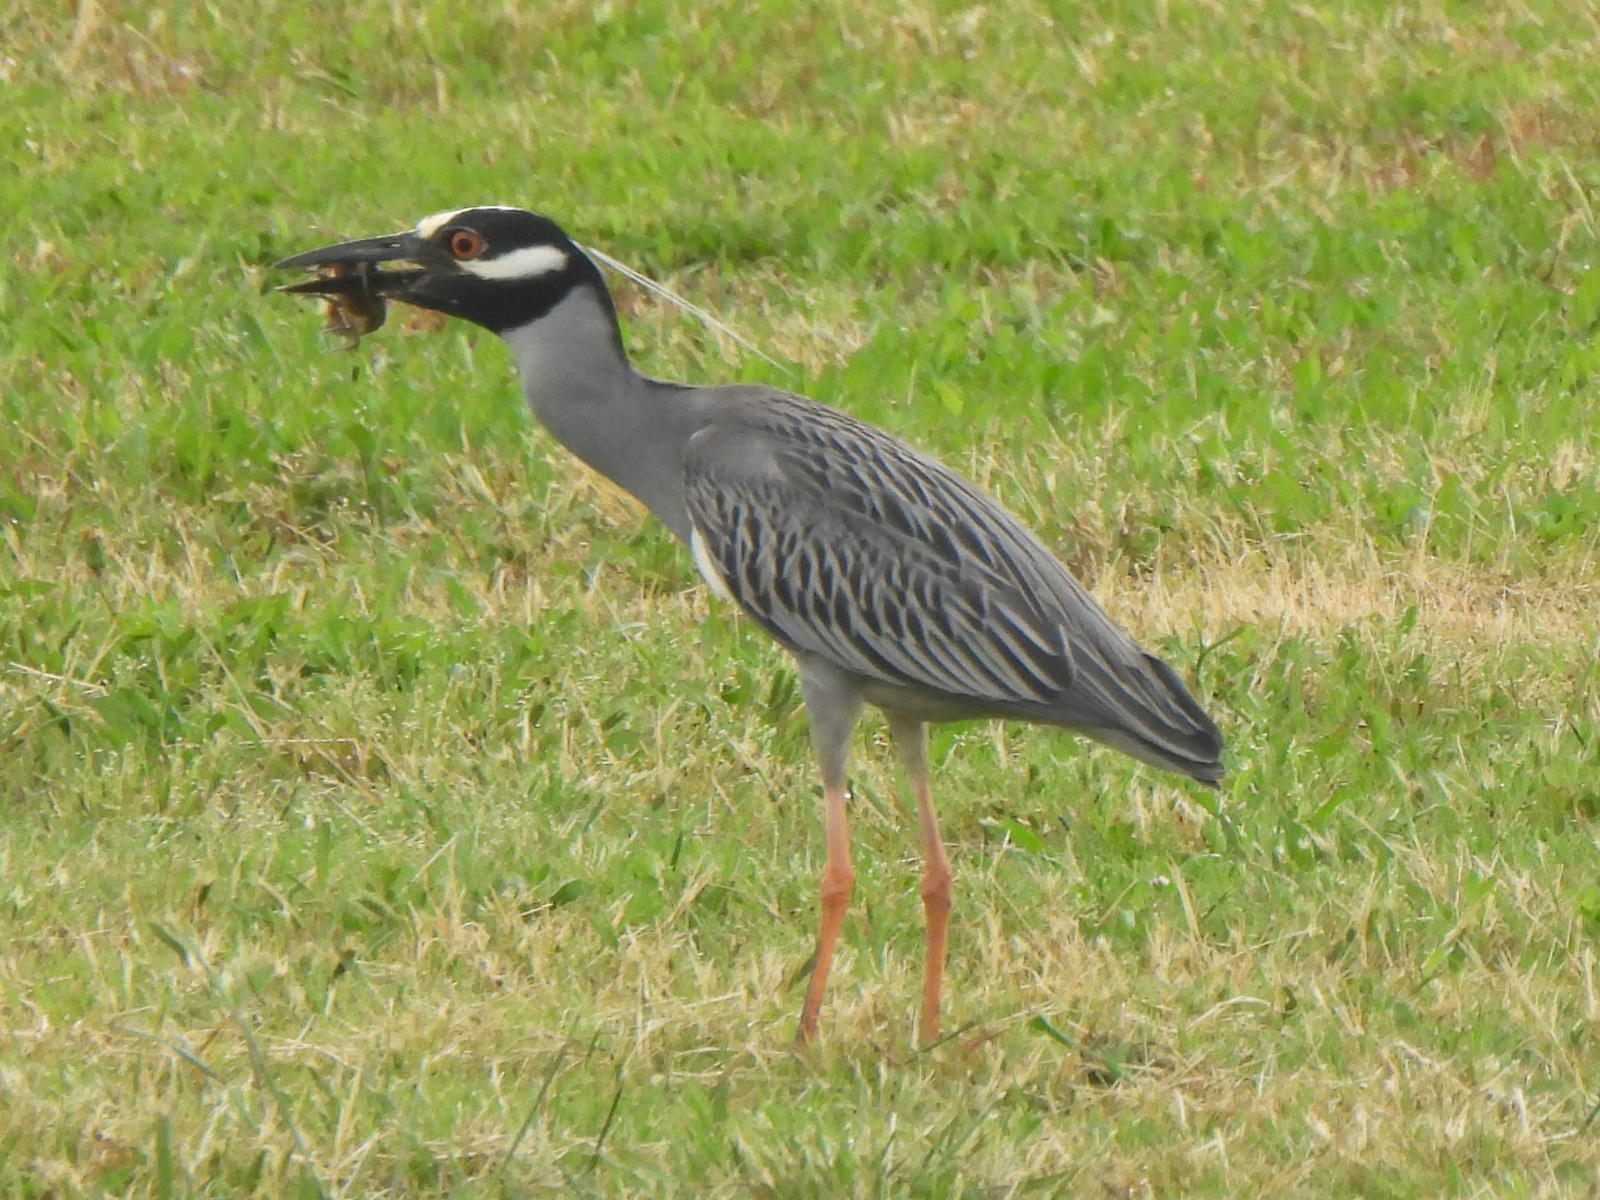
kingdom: Animalia
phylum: Chordata
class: Aves
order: Pelecaniformes
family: Ardeidae
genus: Nyctanassa
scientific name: Nyctanassa violacea
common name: Yellow-crowned night heron
